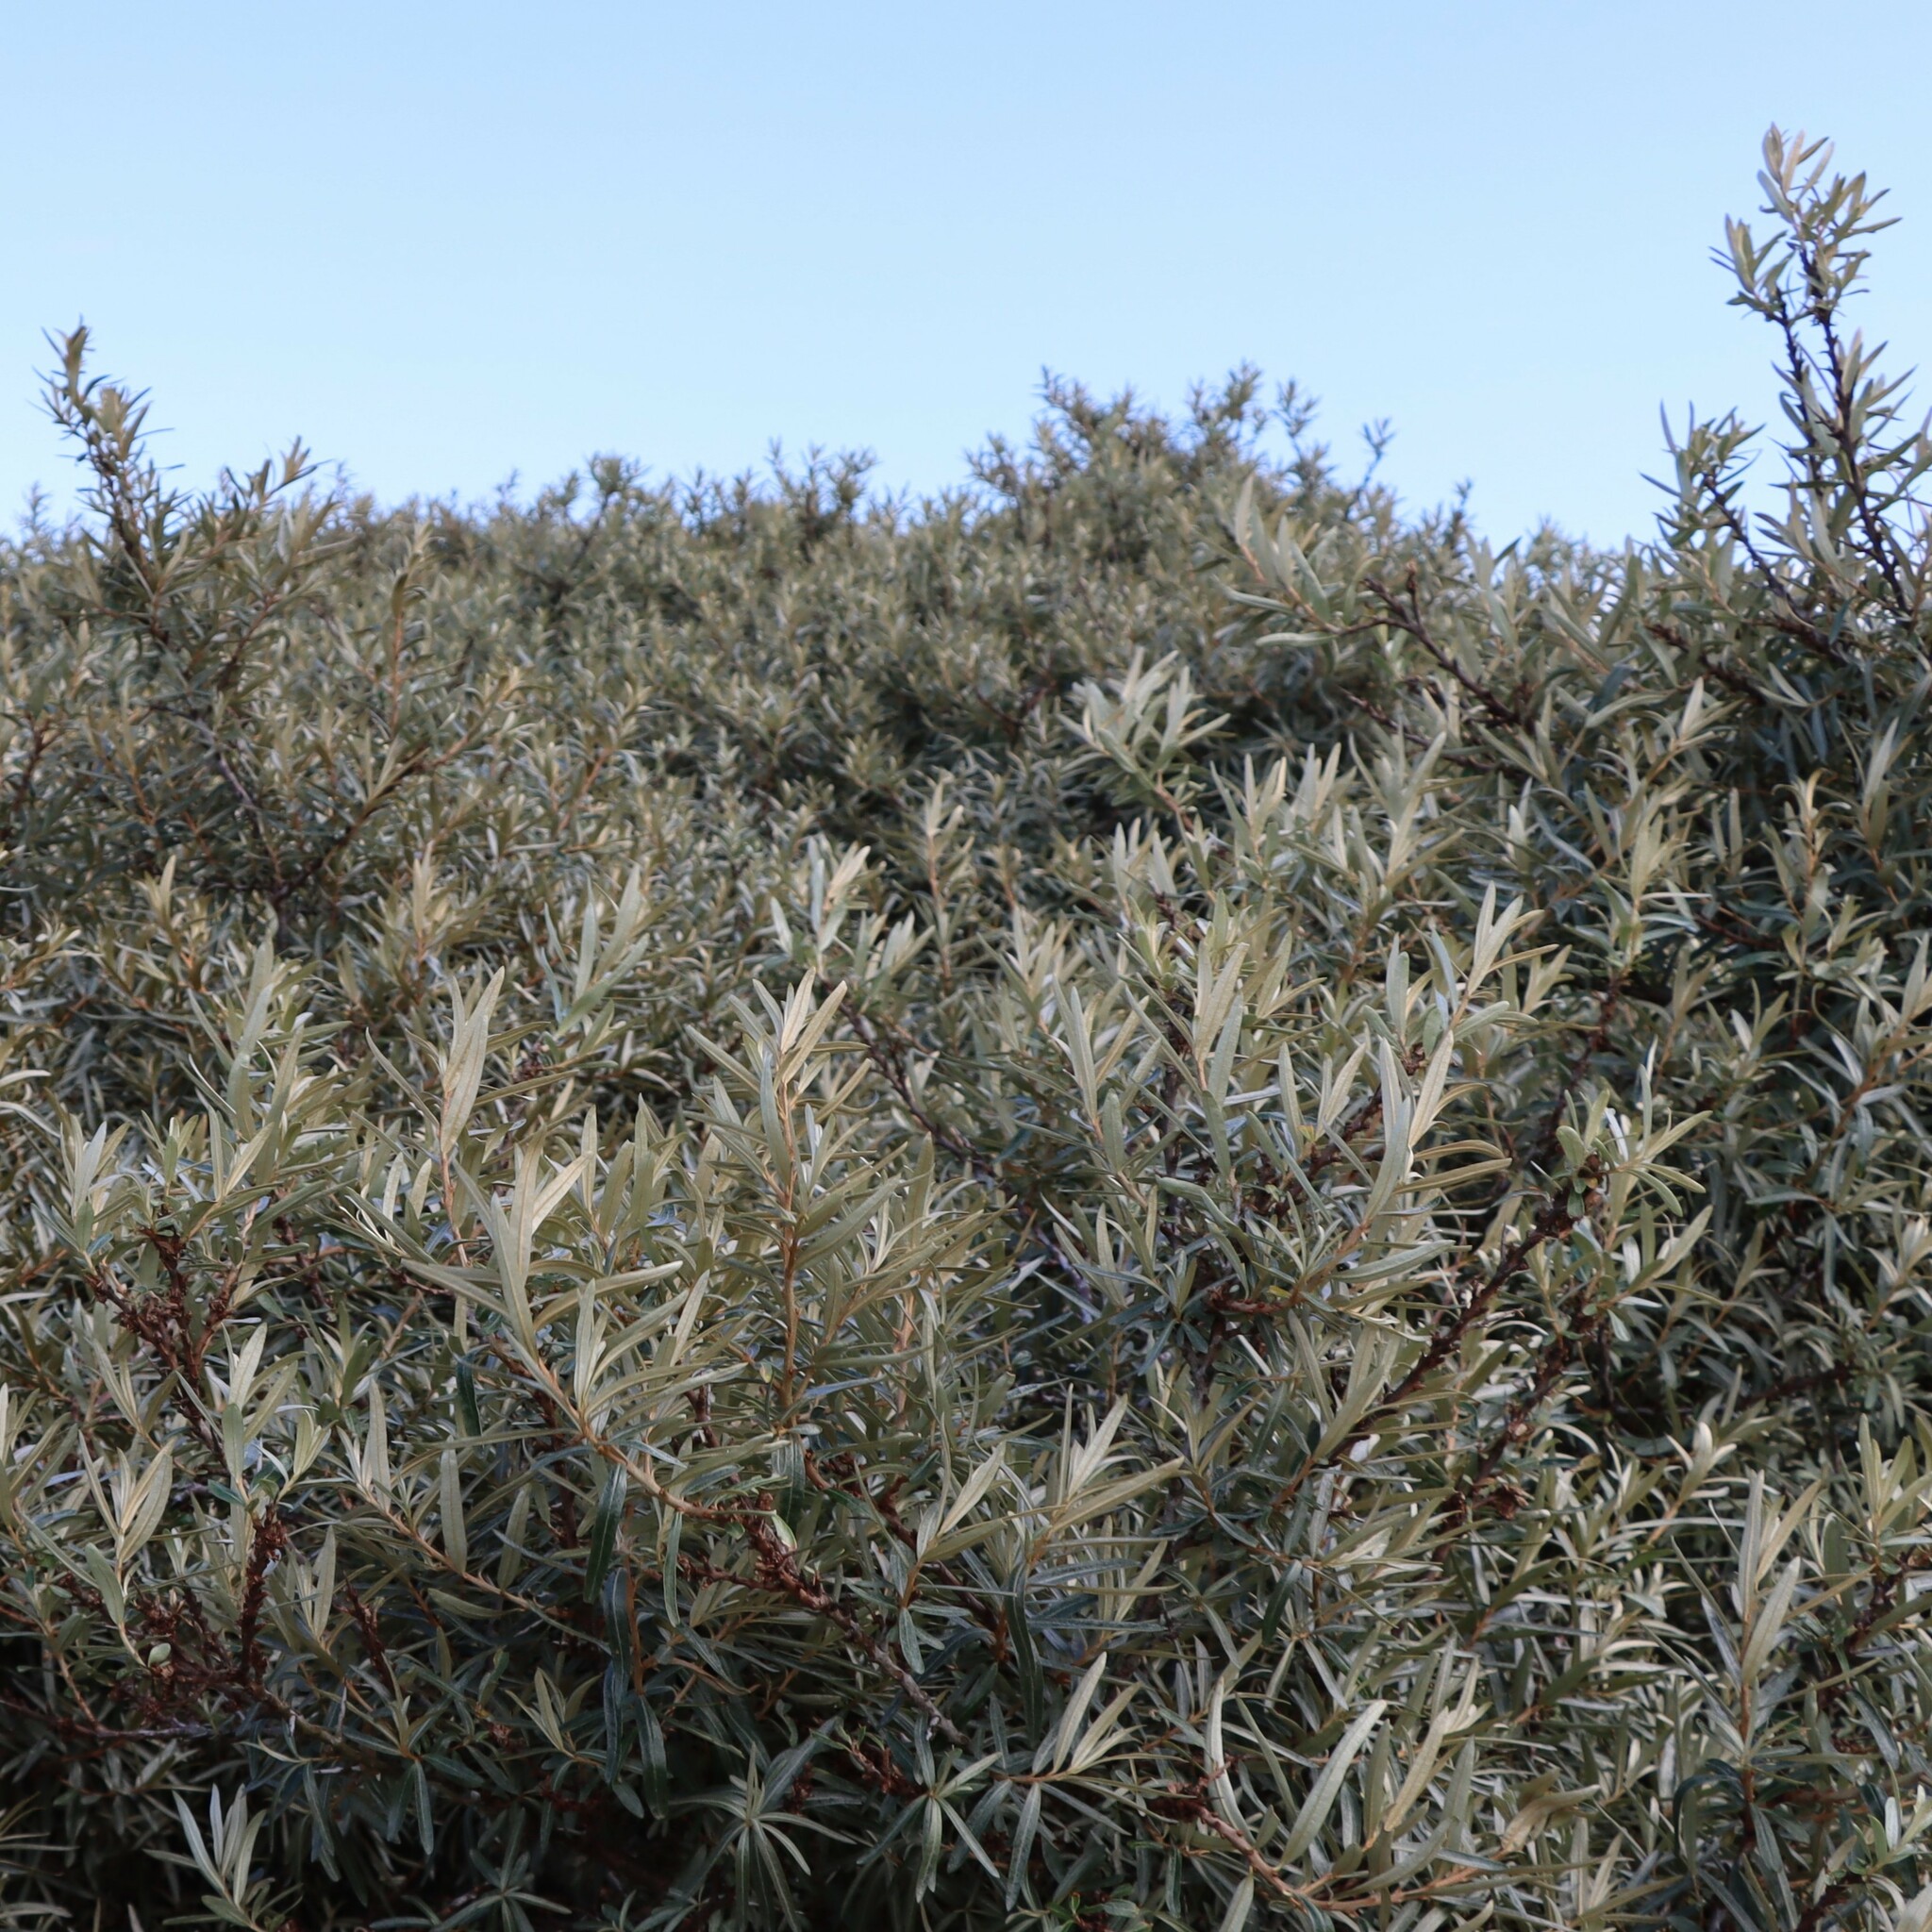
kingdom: Plantae
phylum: Tracheophyta
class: Magnoliopsida
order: Rosales
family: Elaeagnaceae
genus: Hippophae
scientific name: Hippophae rhamnoides
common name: Sea-buckthorn
